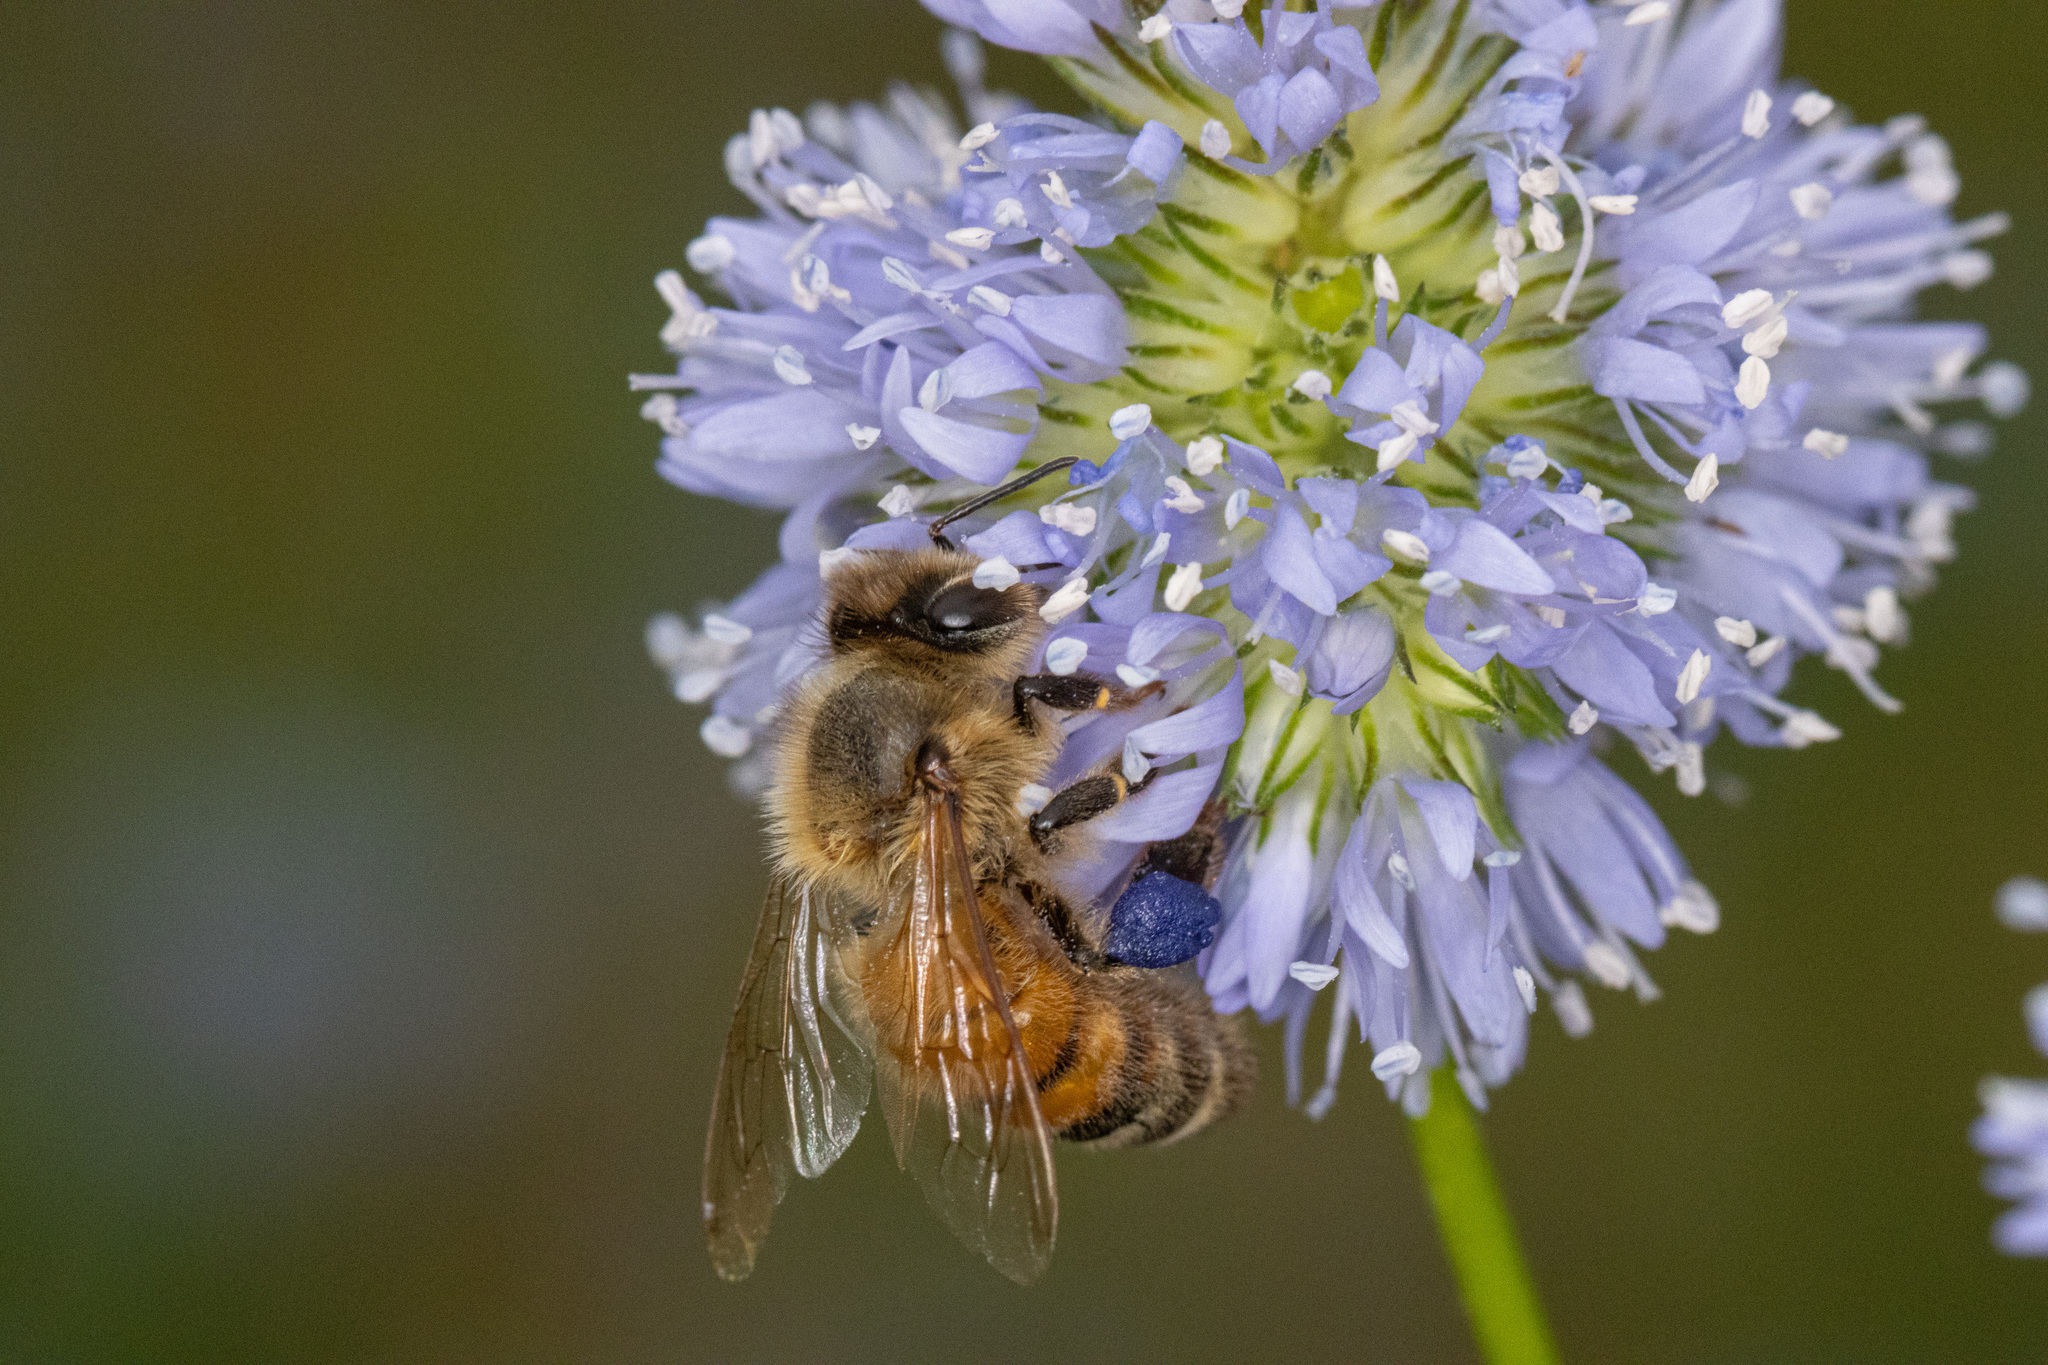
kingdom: Animalia
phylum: Arthropoda
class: Insecta
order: Hymenoptera
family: Apidae
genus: Apis
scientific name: Apis mellifera
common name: Honey bee
